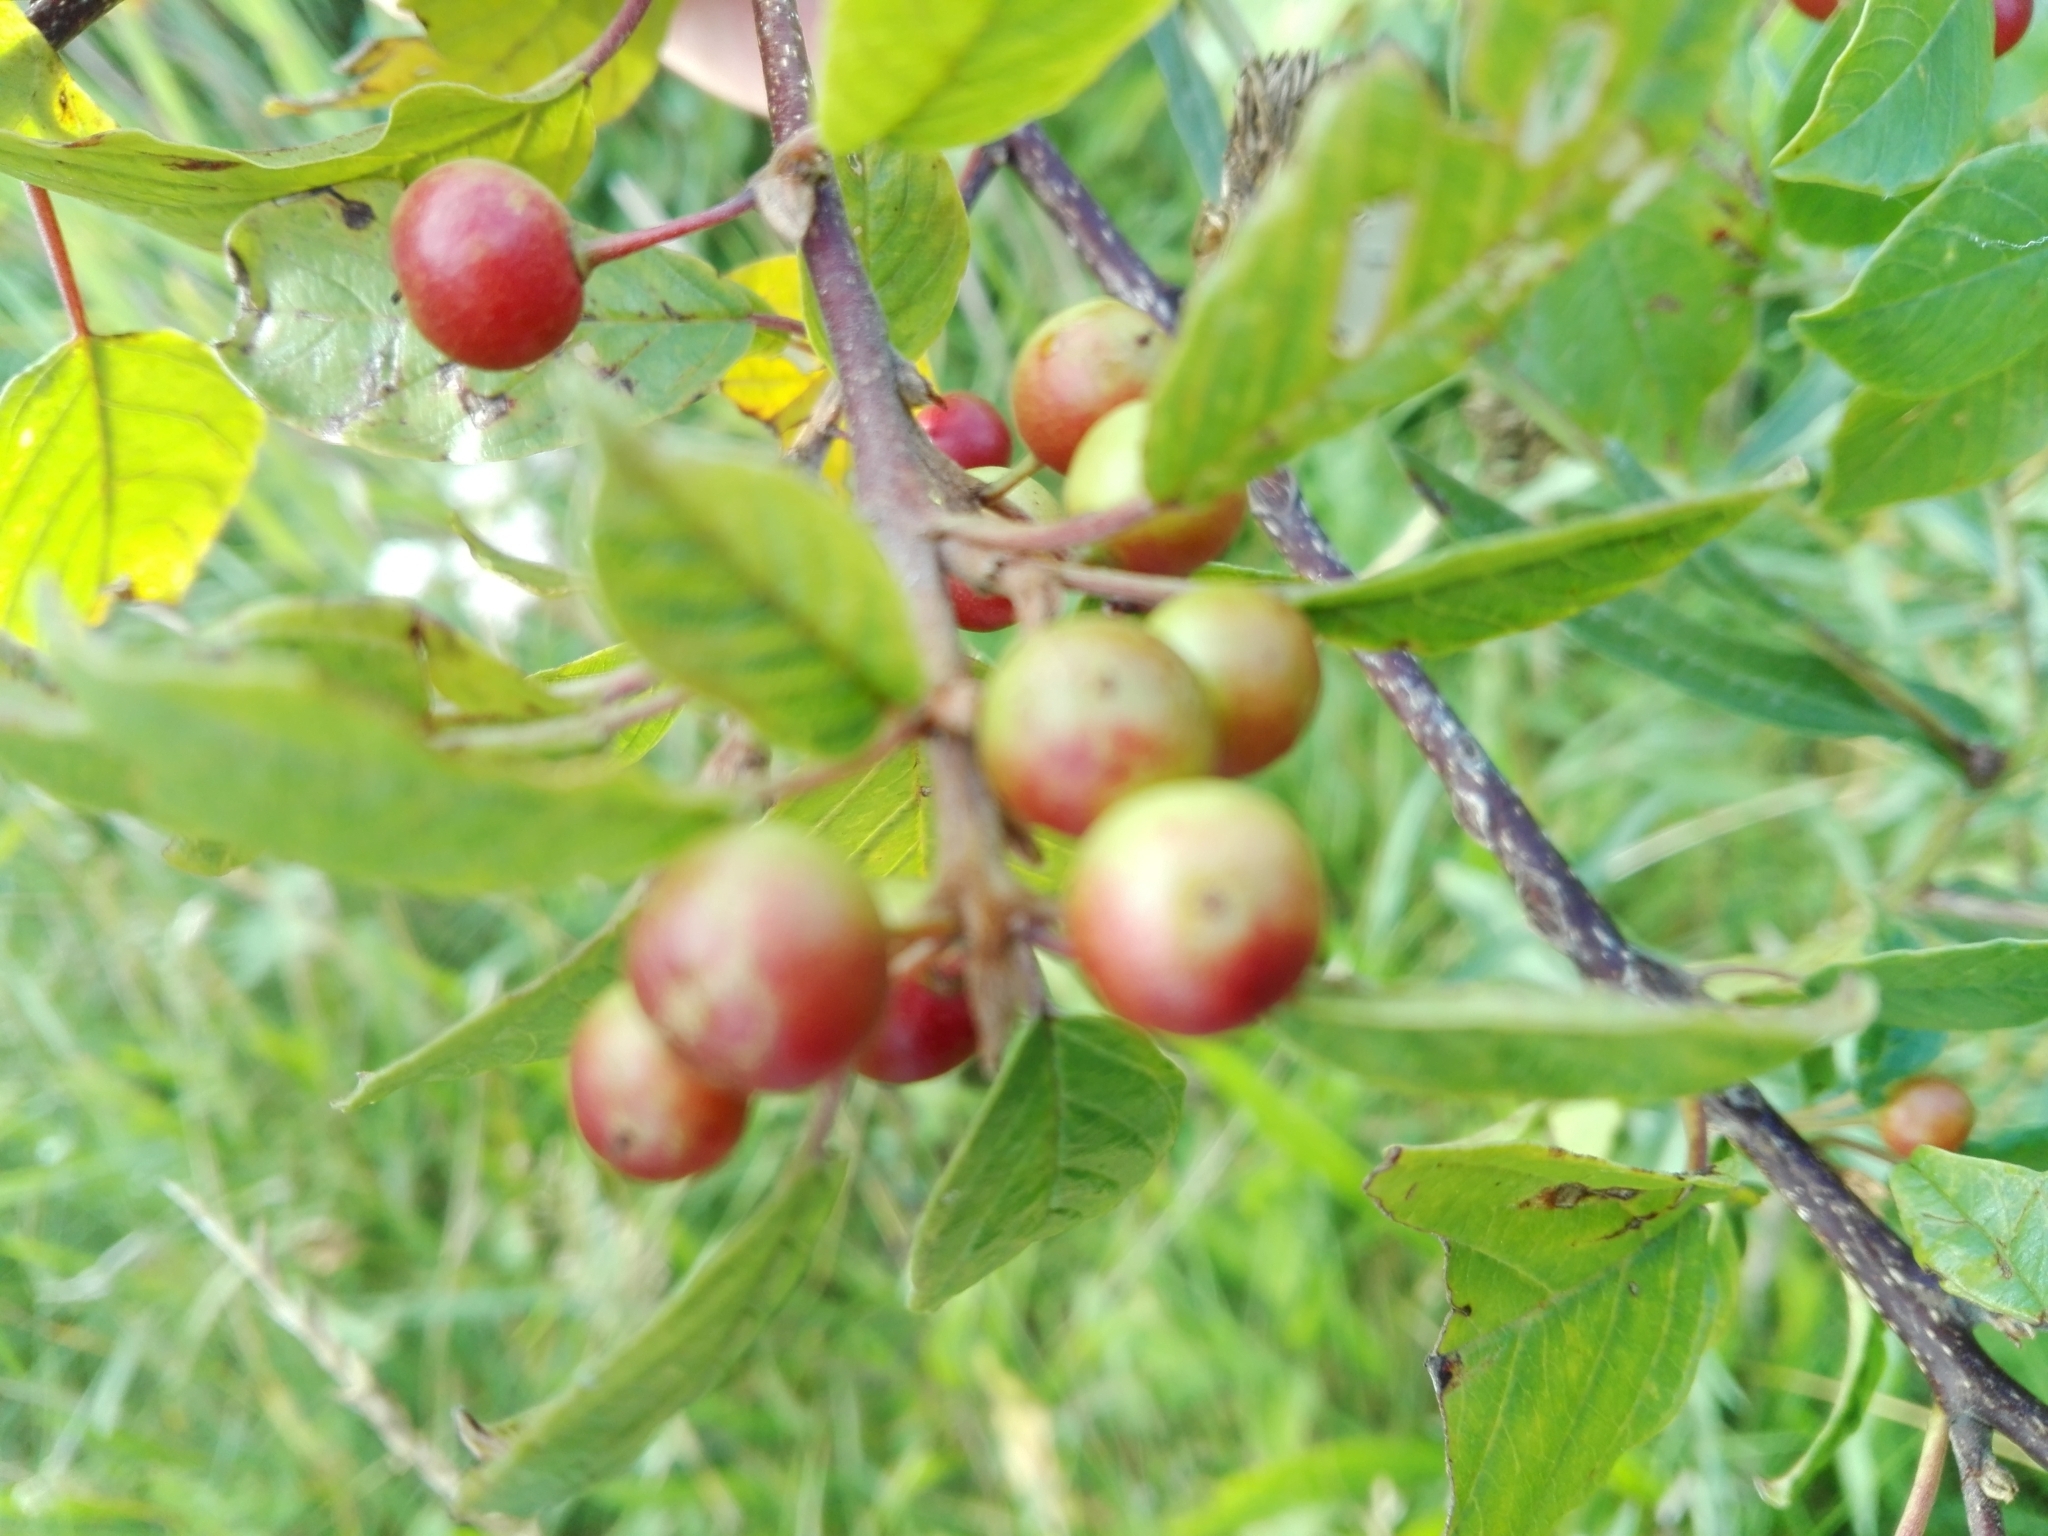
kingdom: Plantae
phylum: Tracheophyta
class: Magnoliopsida
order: Rosales
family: Rhamnaceae
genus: Frangula
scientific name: Frangula alnus
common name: Alder buckthorn
